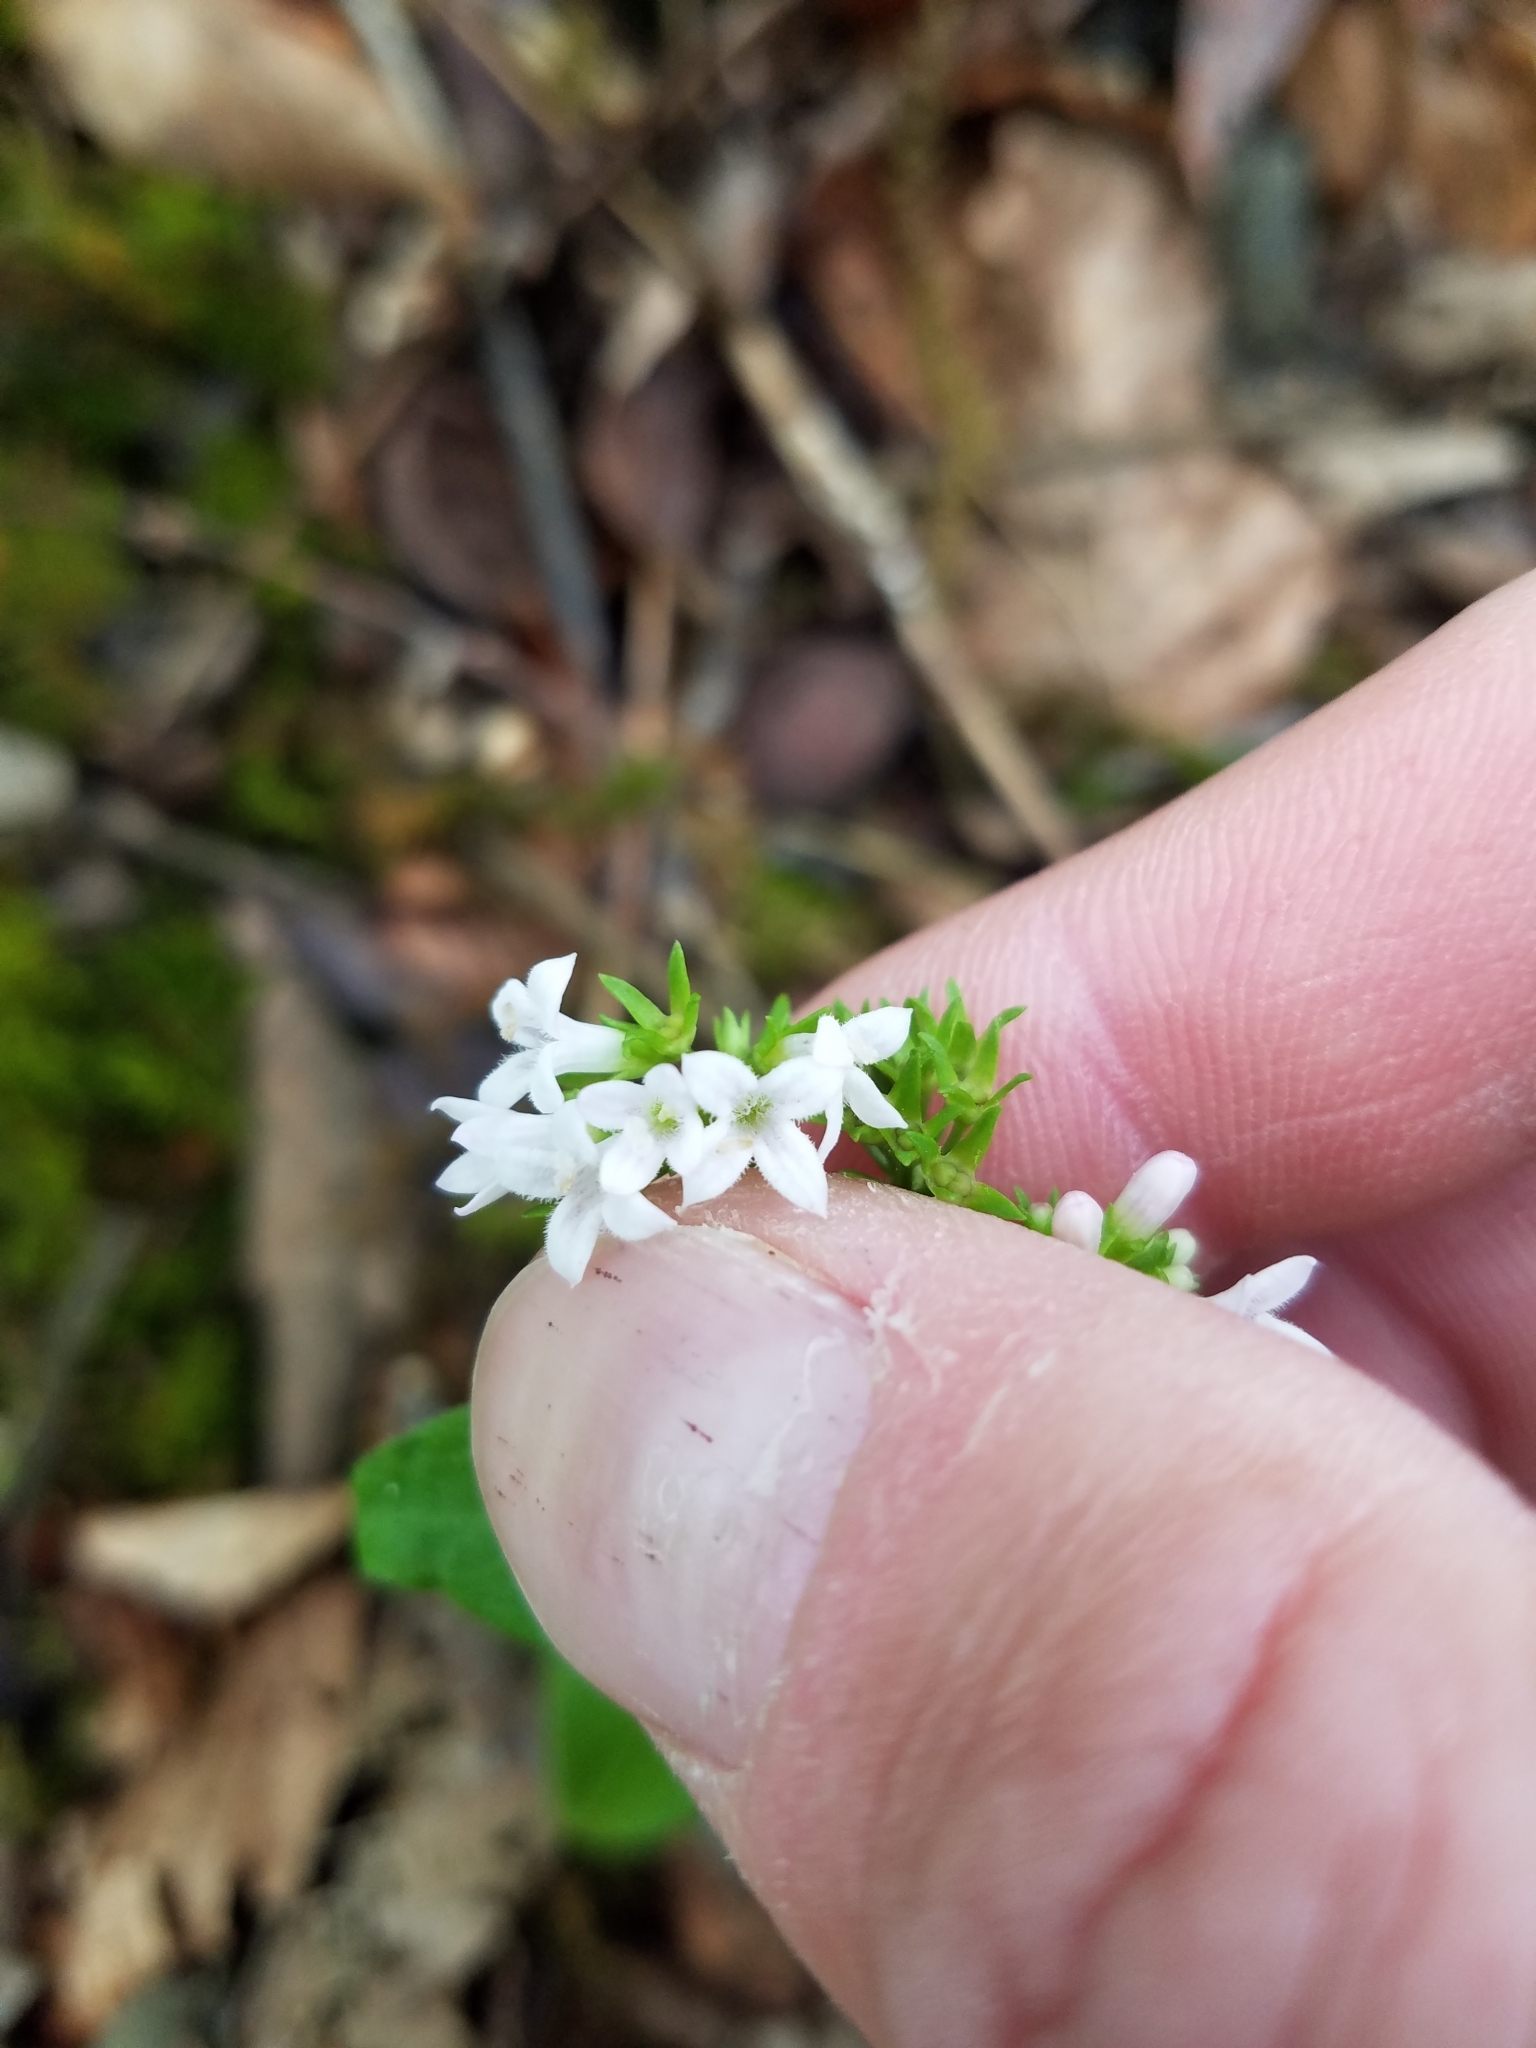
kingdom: Plantae
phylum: Tracheophyta
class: Magnoliopsida
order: Gentianales
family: Rubiaceae
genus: Houstonia
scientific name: Houstonia purpurea
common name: Summer bluet
